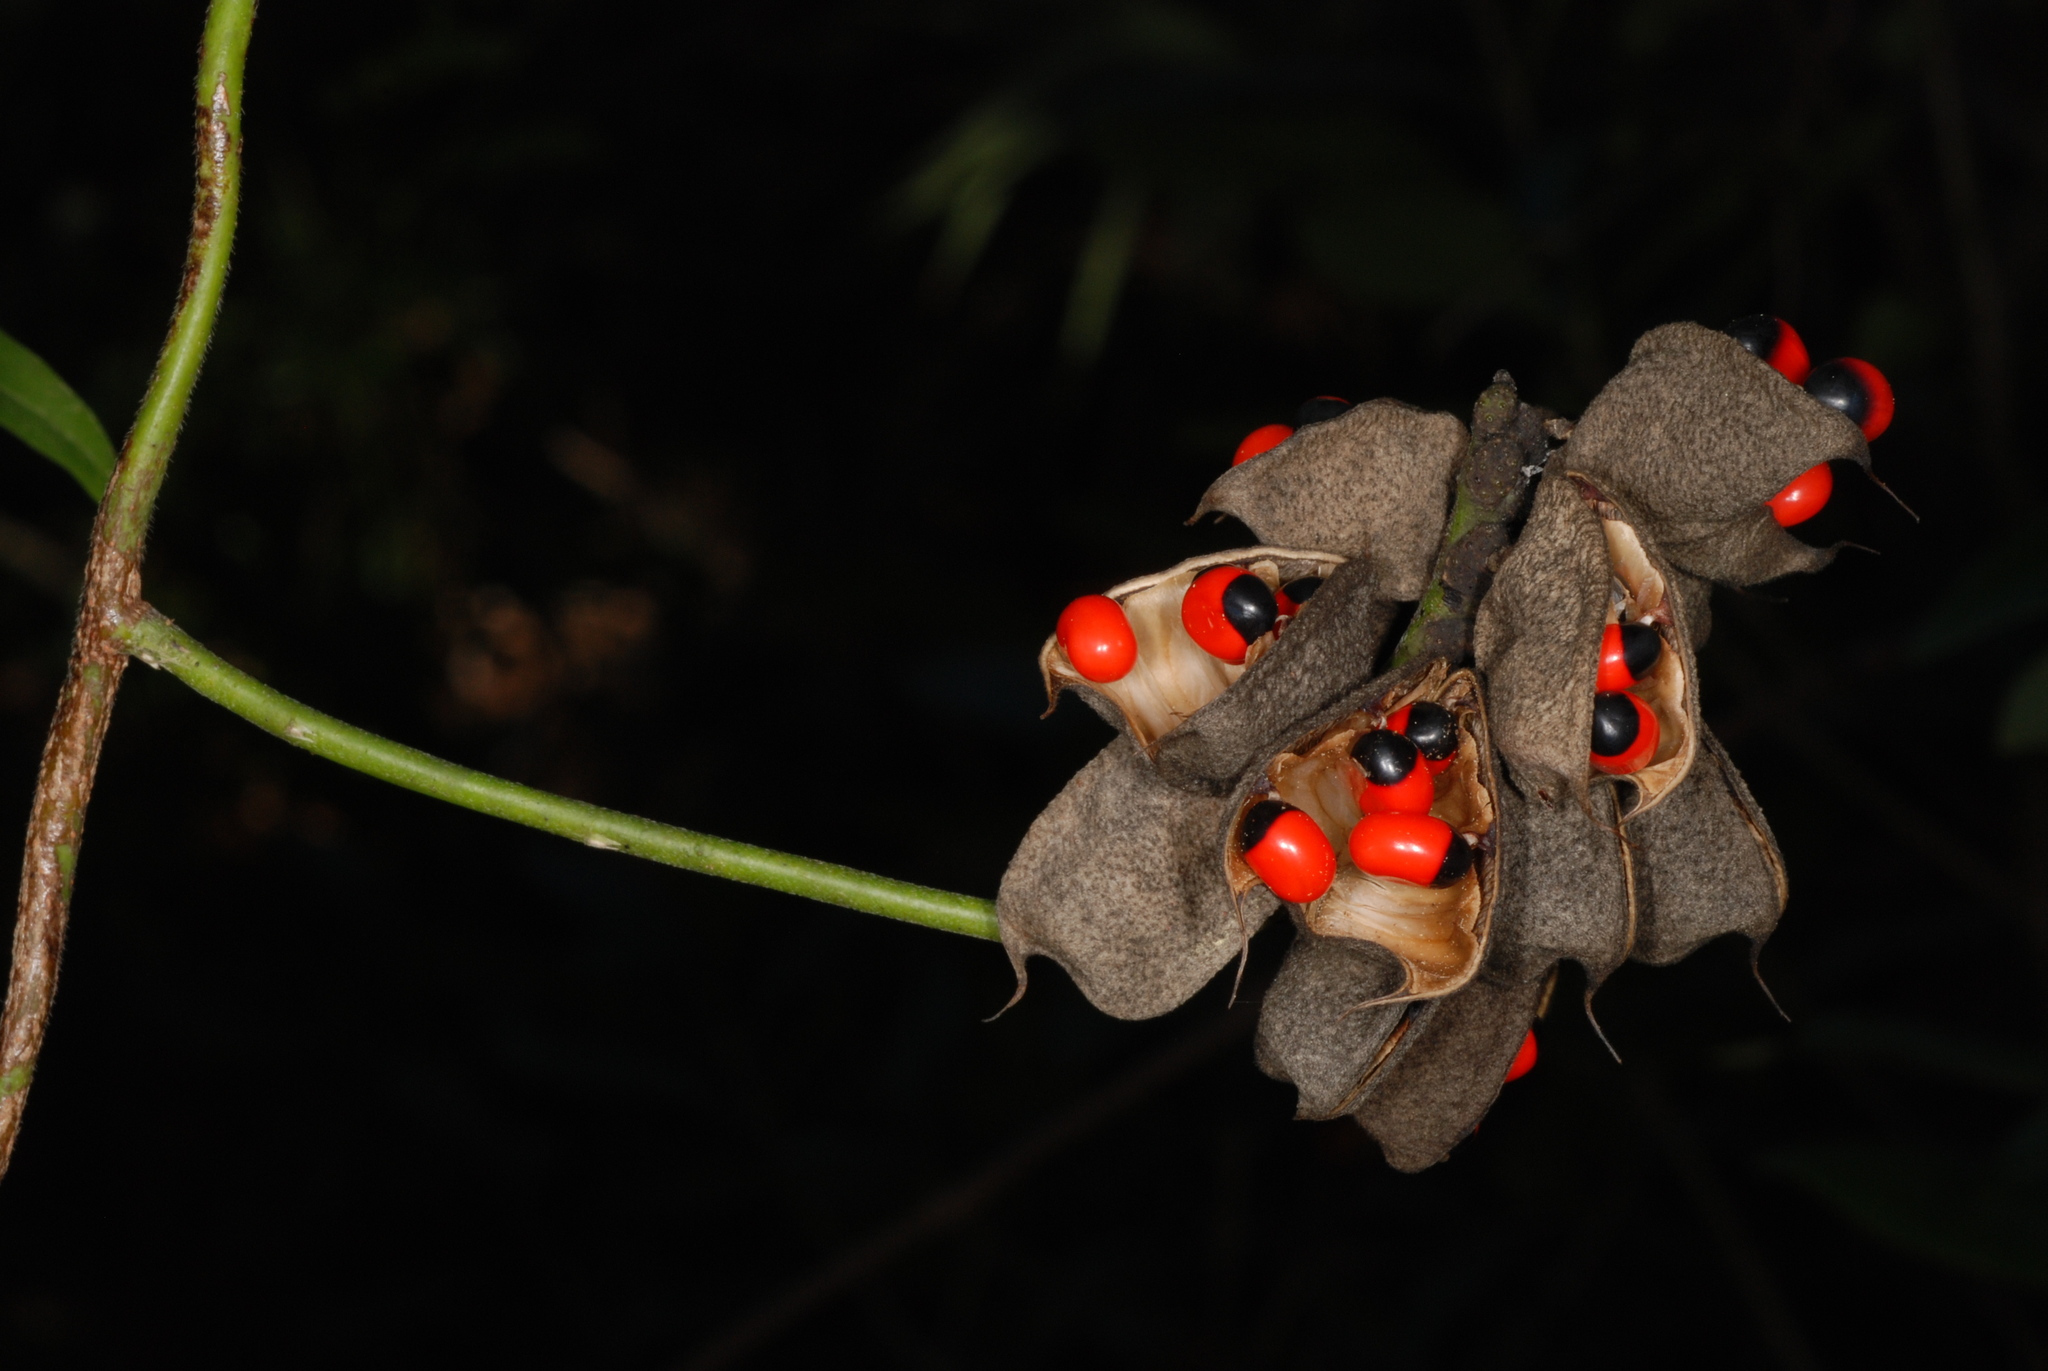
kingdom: Plantae
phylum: Tracheophyta
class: Magnoliopsida
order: Fabales
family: Fabaceae
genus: Abrus
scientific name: Abrus precatorius
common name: Rosarypea
